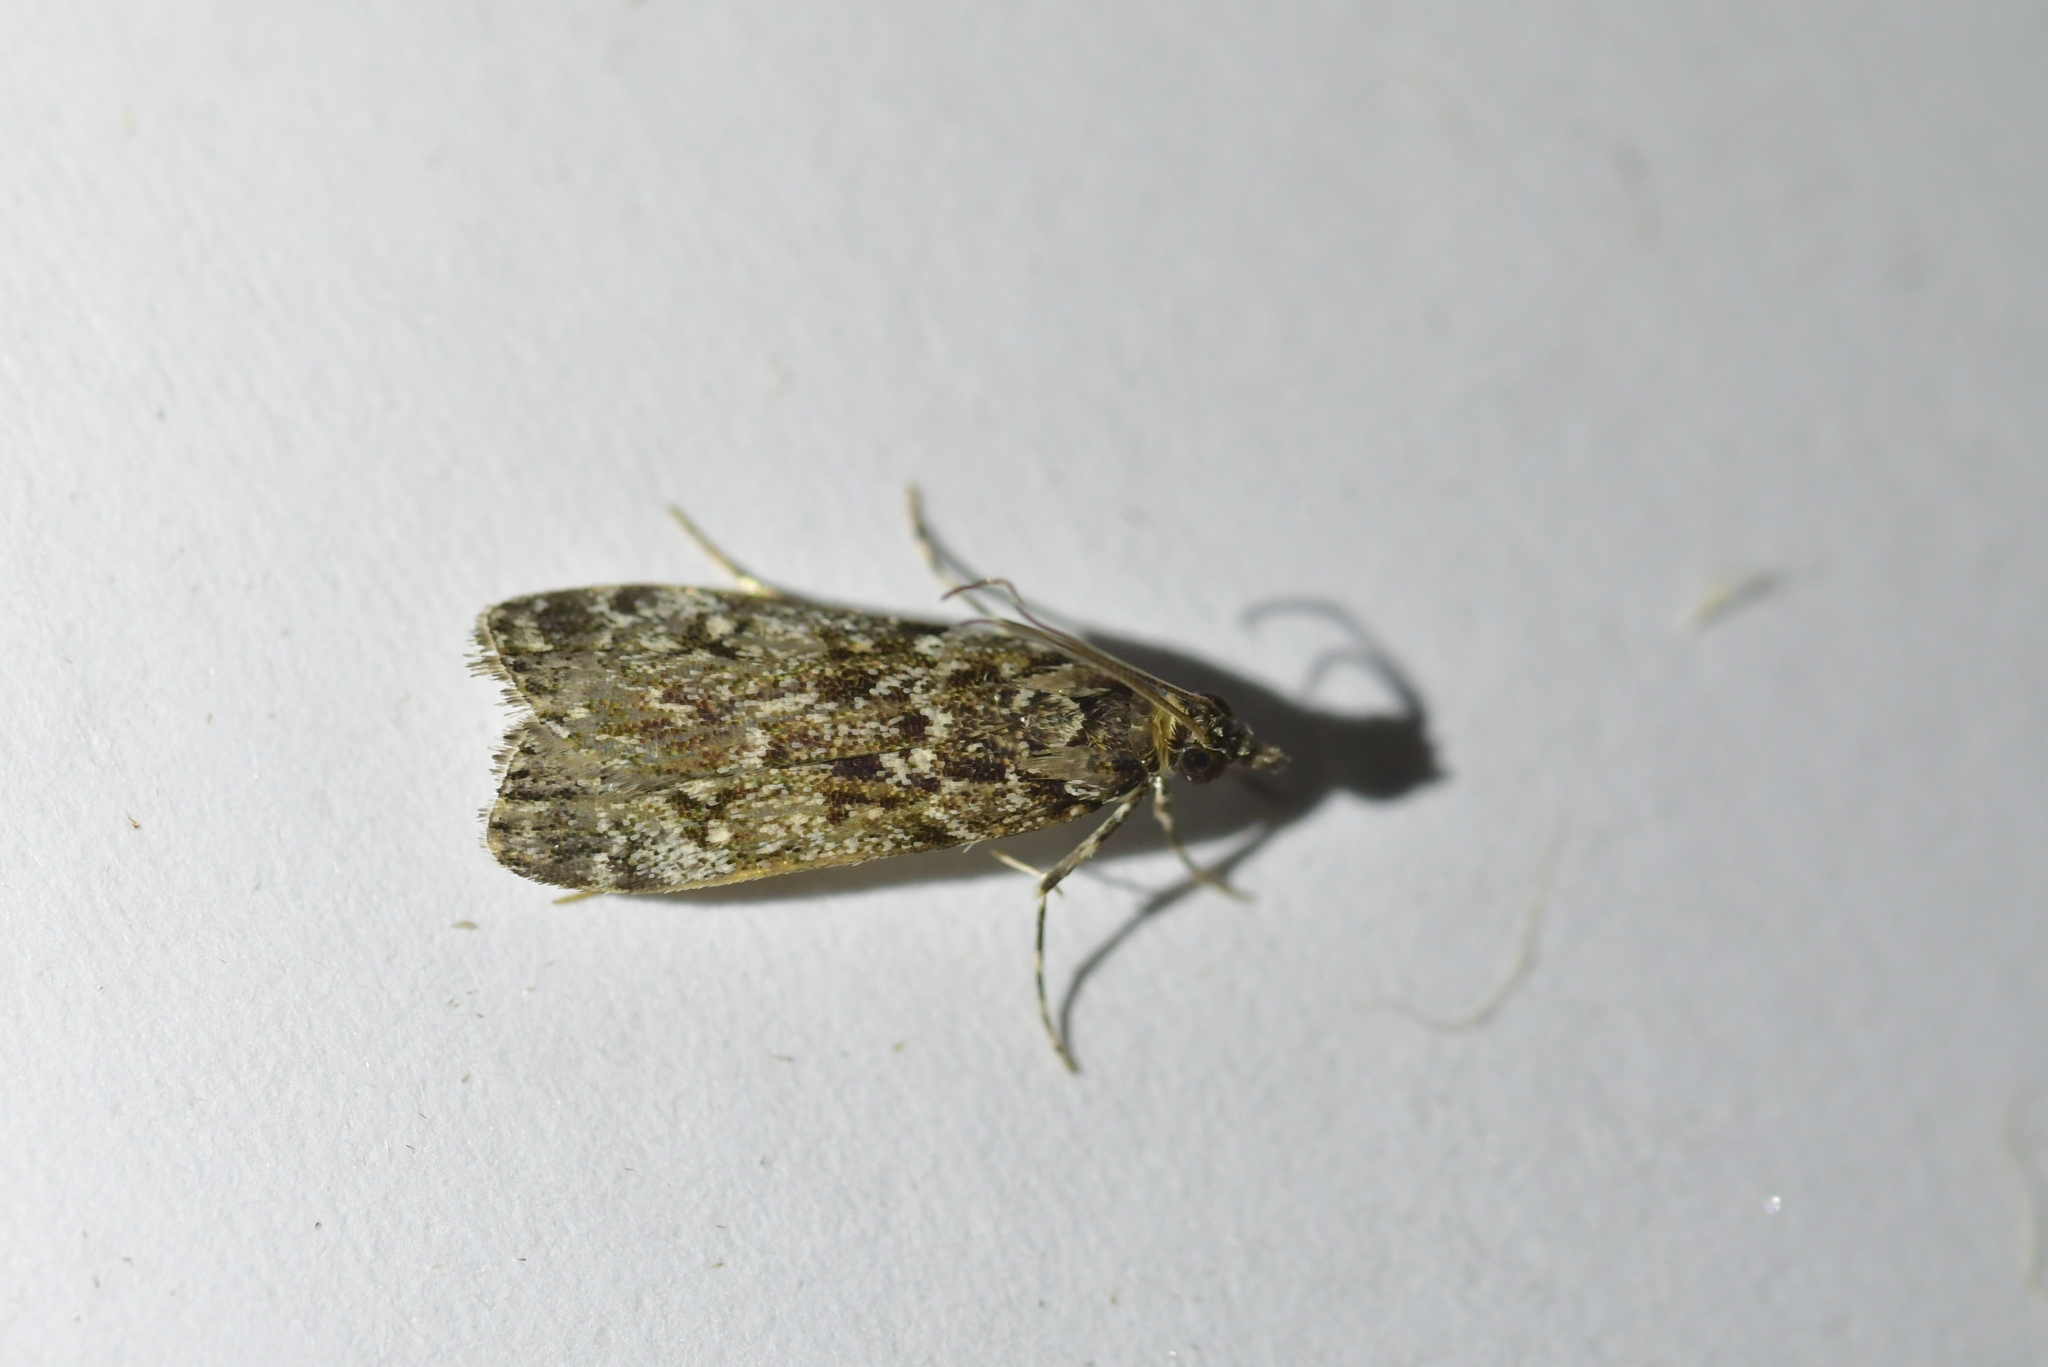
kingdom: Animalia
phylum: Arthropoda
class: Insecta
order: Lepidoptera
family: Crambidae
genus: Eudonia
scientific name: Eudonia philerga
